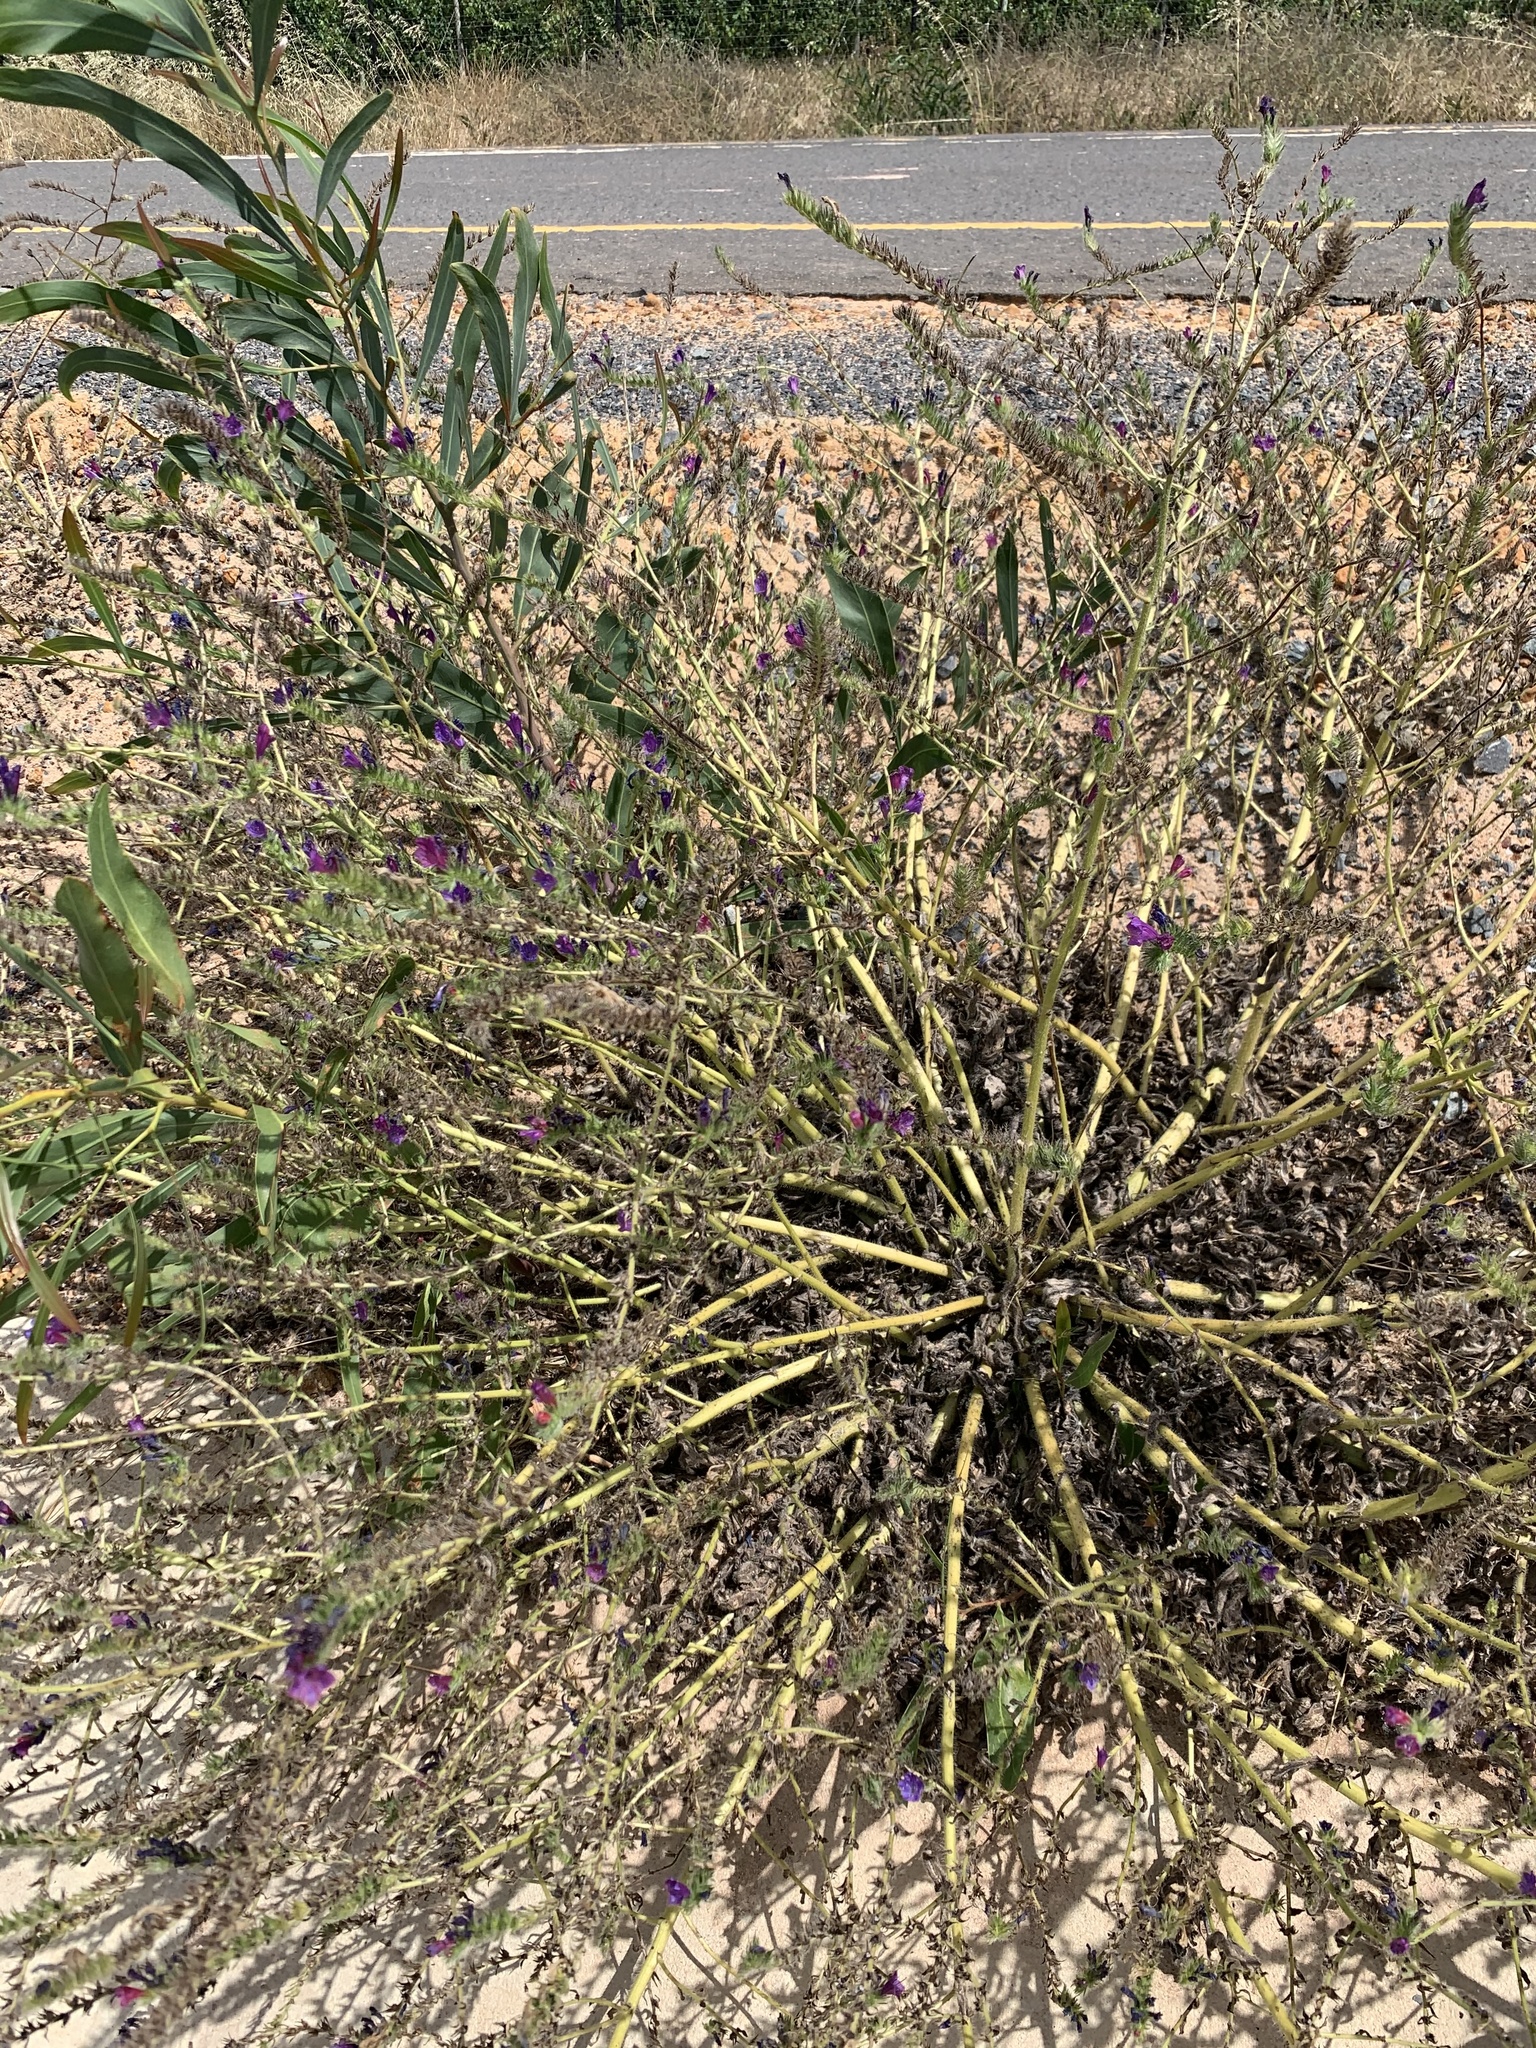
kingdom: Plantae
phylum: Tracheophyta
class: Magnoliopsida
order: Boraginales
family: Boraginaceae
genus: Echium
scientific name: Echium plantagineum
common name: Purple viper's-bugloss
